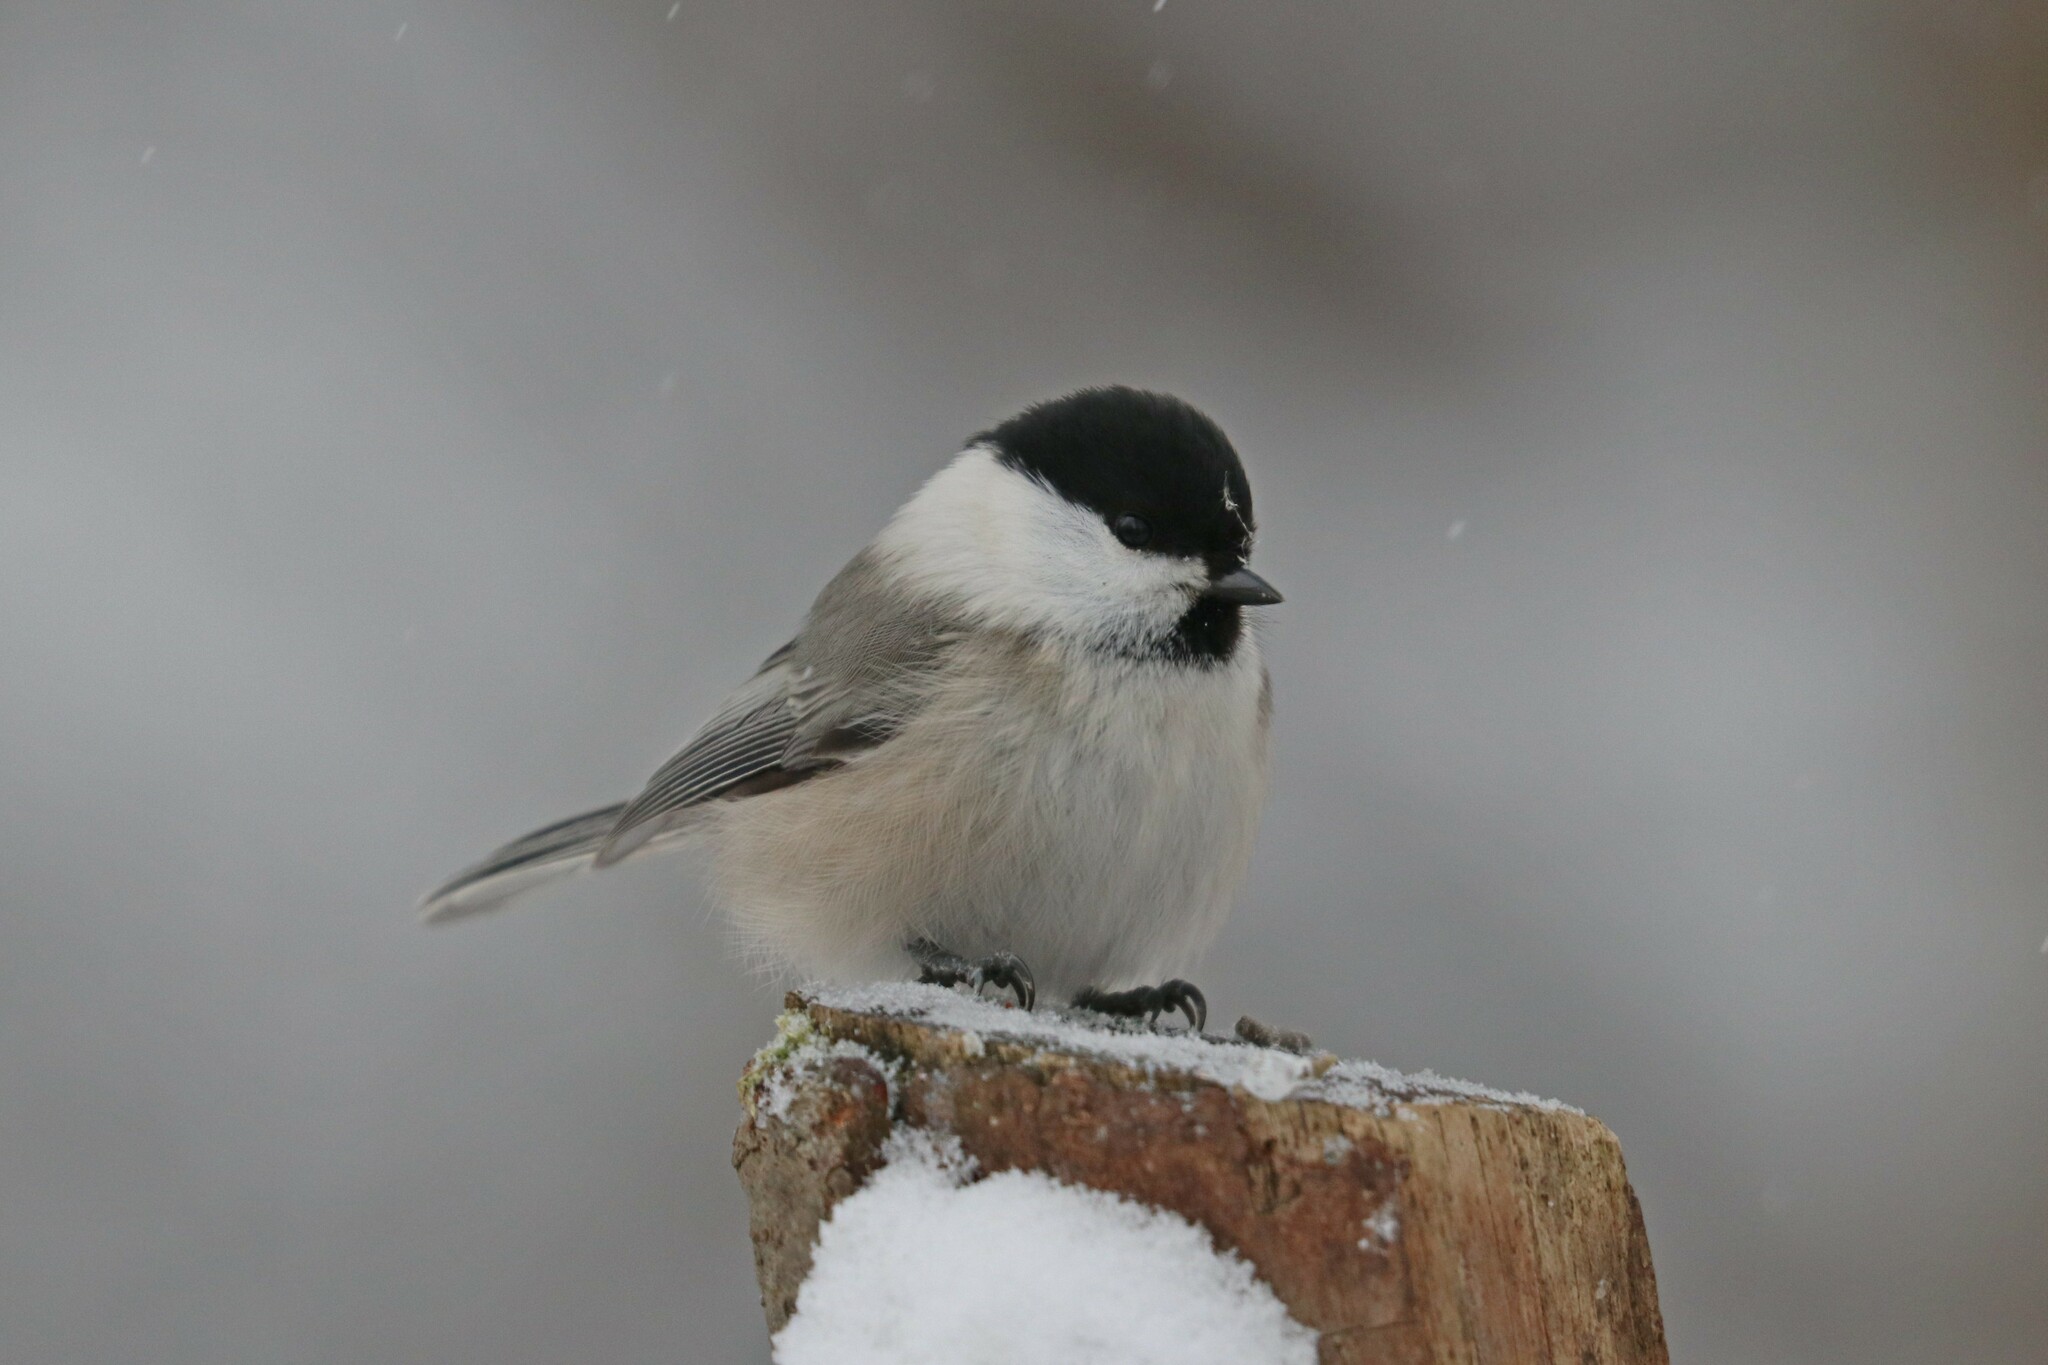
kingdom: Animalia
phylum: Chordata
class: Aves
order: Passeriformes
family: Paridae
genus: Poecile
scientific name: Poecile montanus
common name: Willow tit
